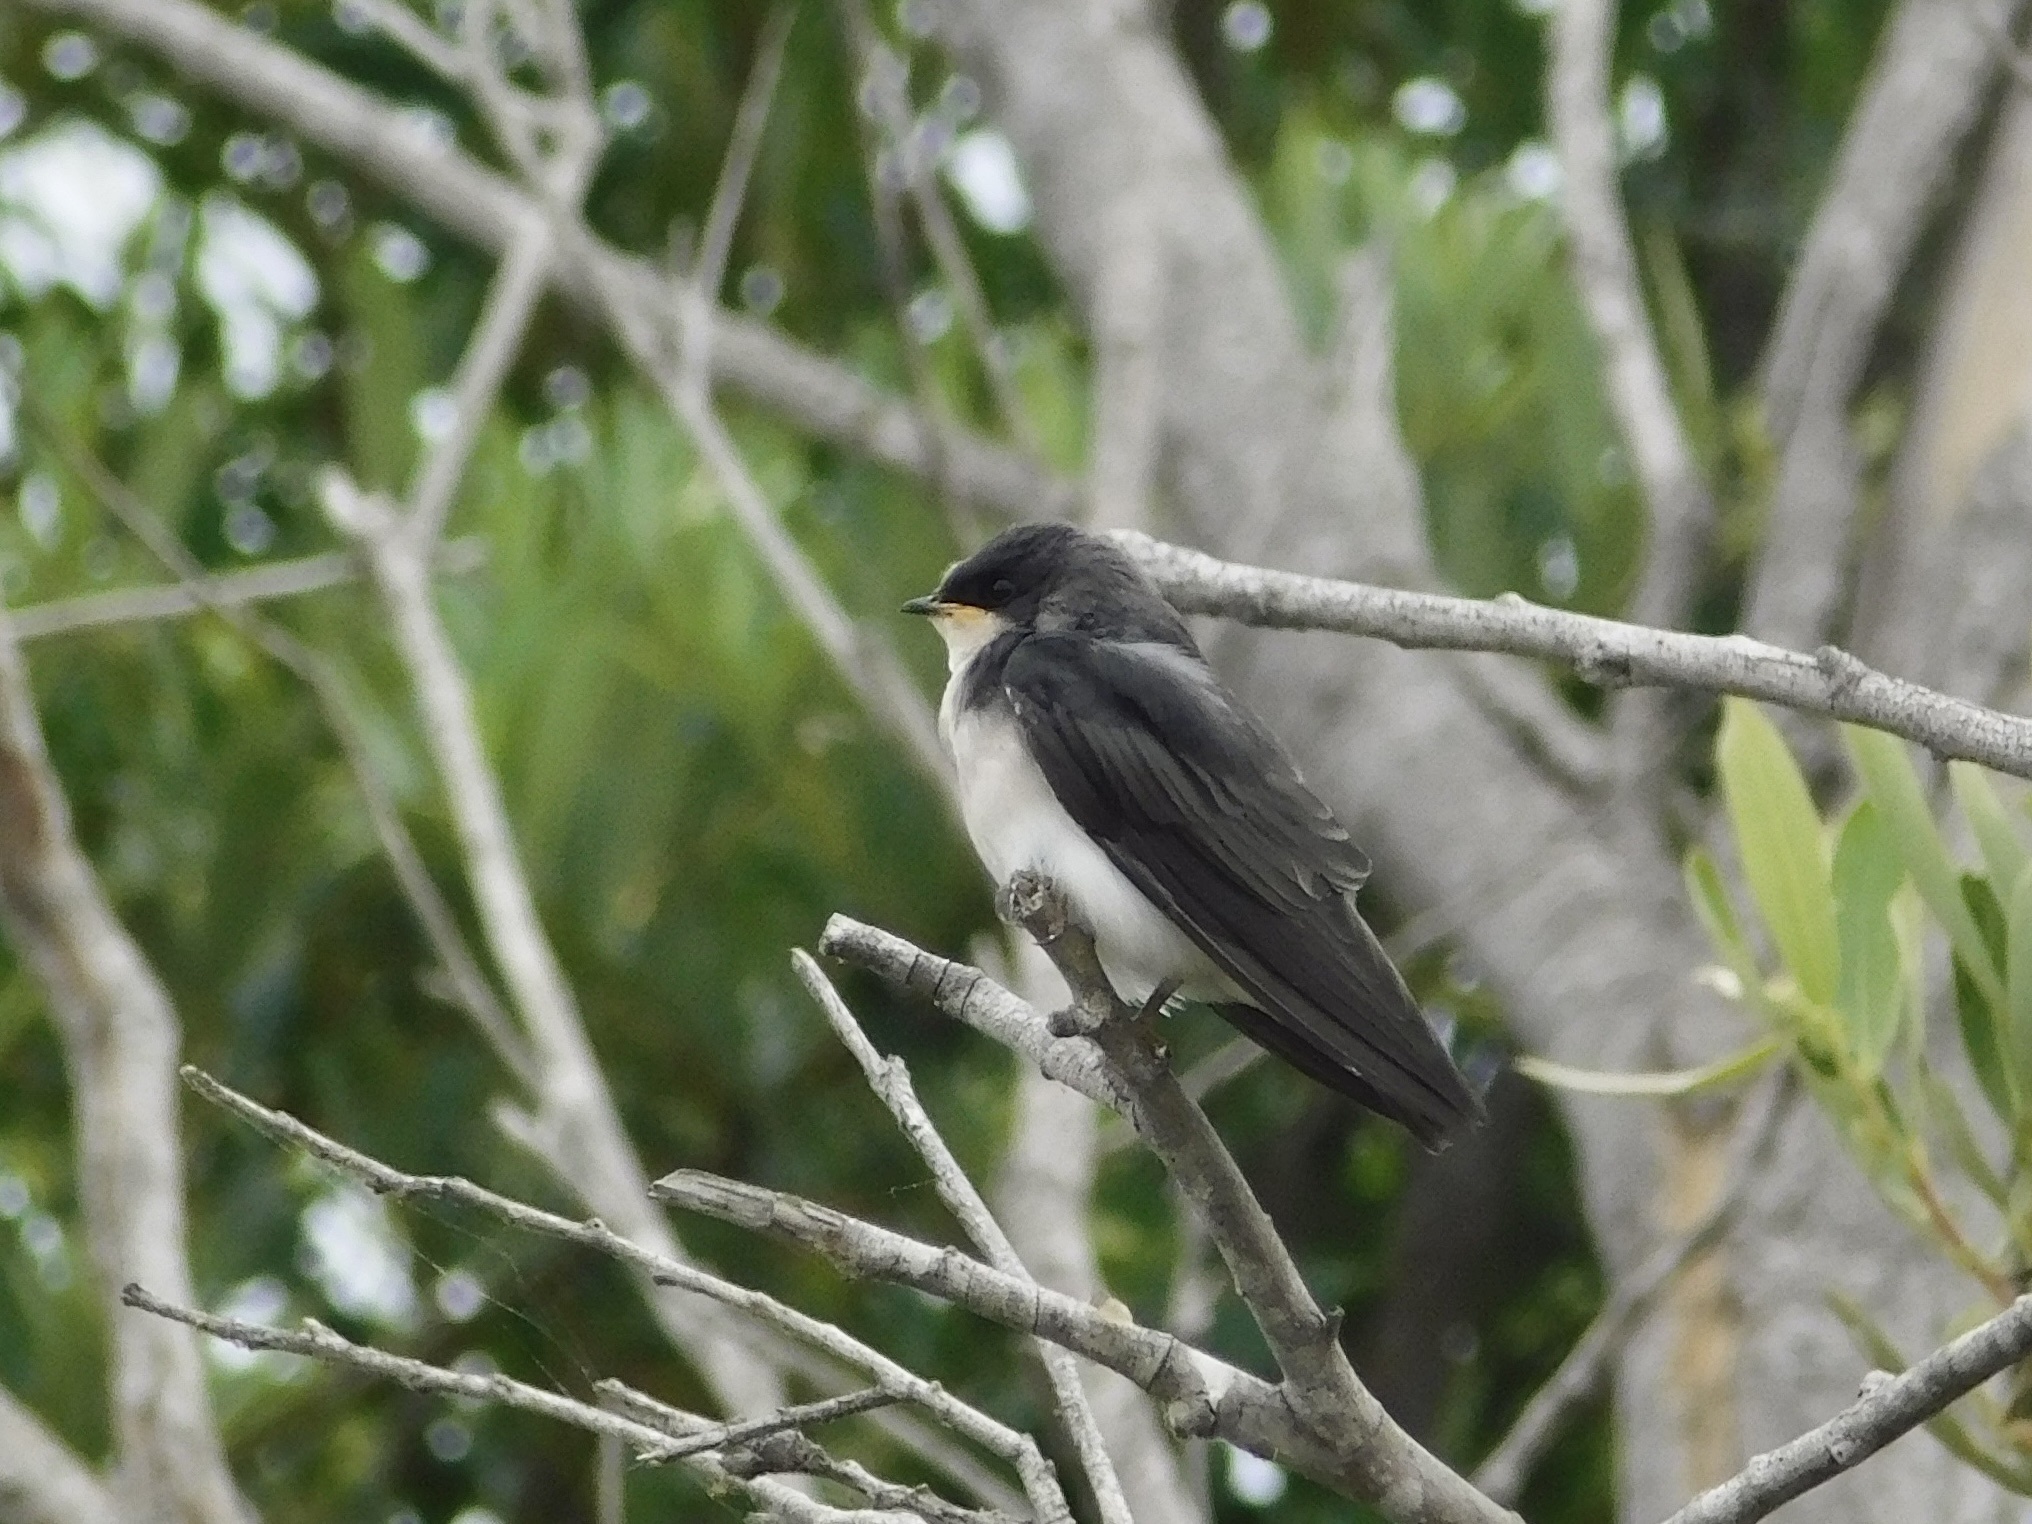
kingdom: Animalia
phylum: Chordata
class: Aves
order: Passeriformes
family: Hirundinidae
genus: Tachycineta
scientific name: Tachycineta bicolor
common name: Tree swallow
